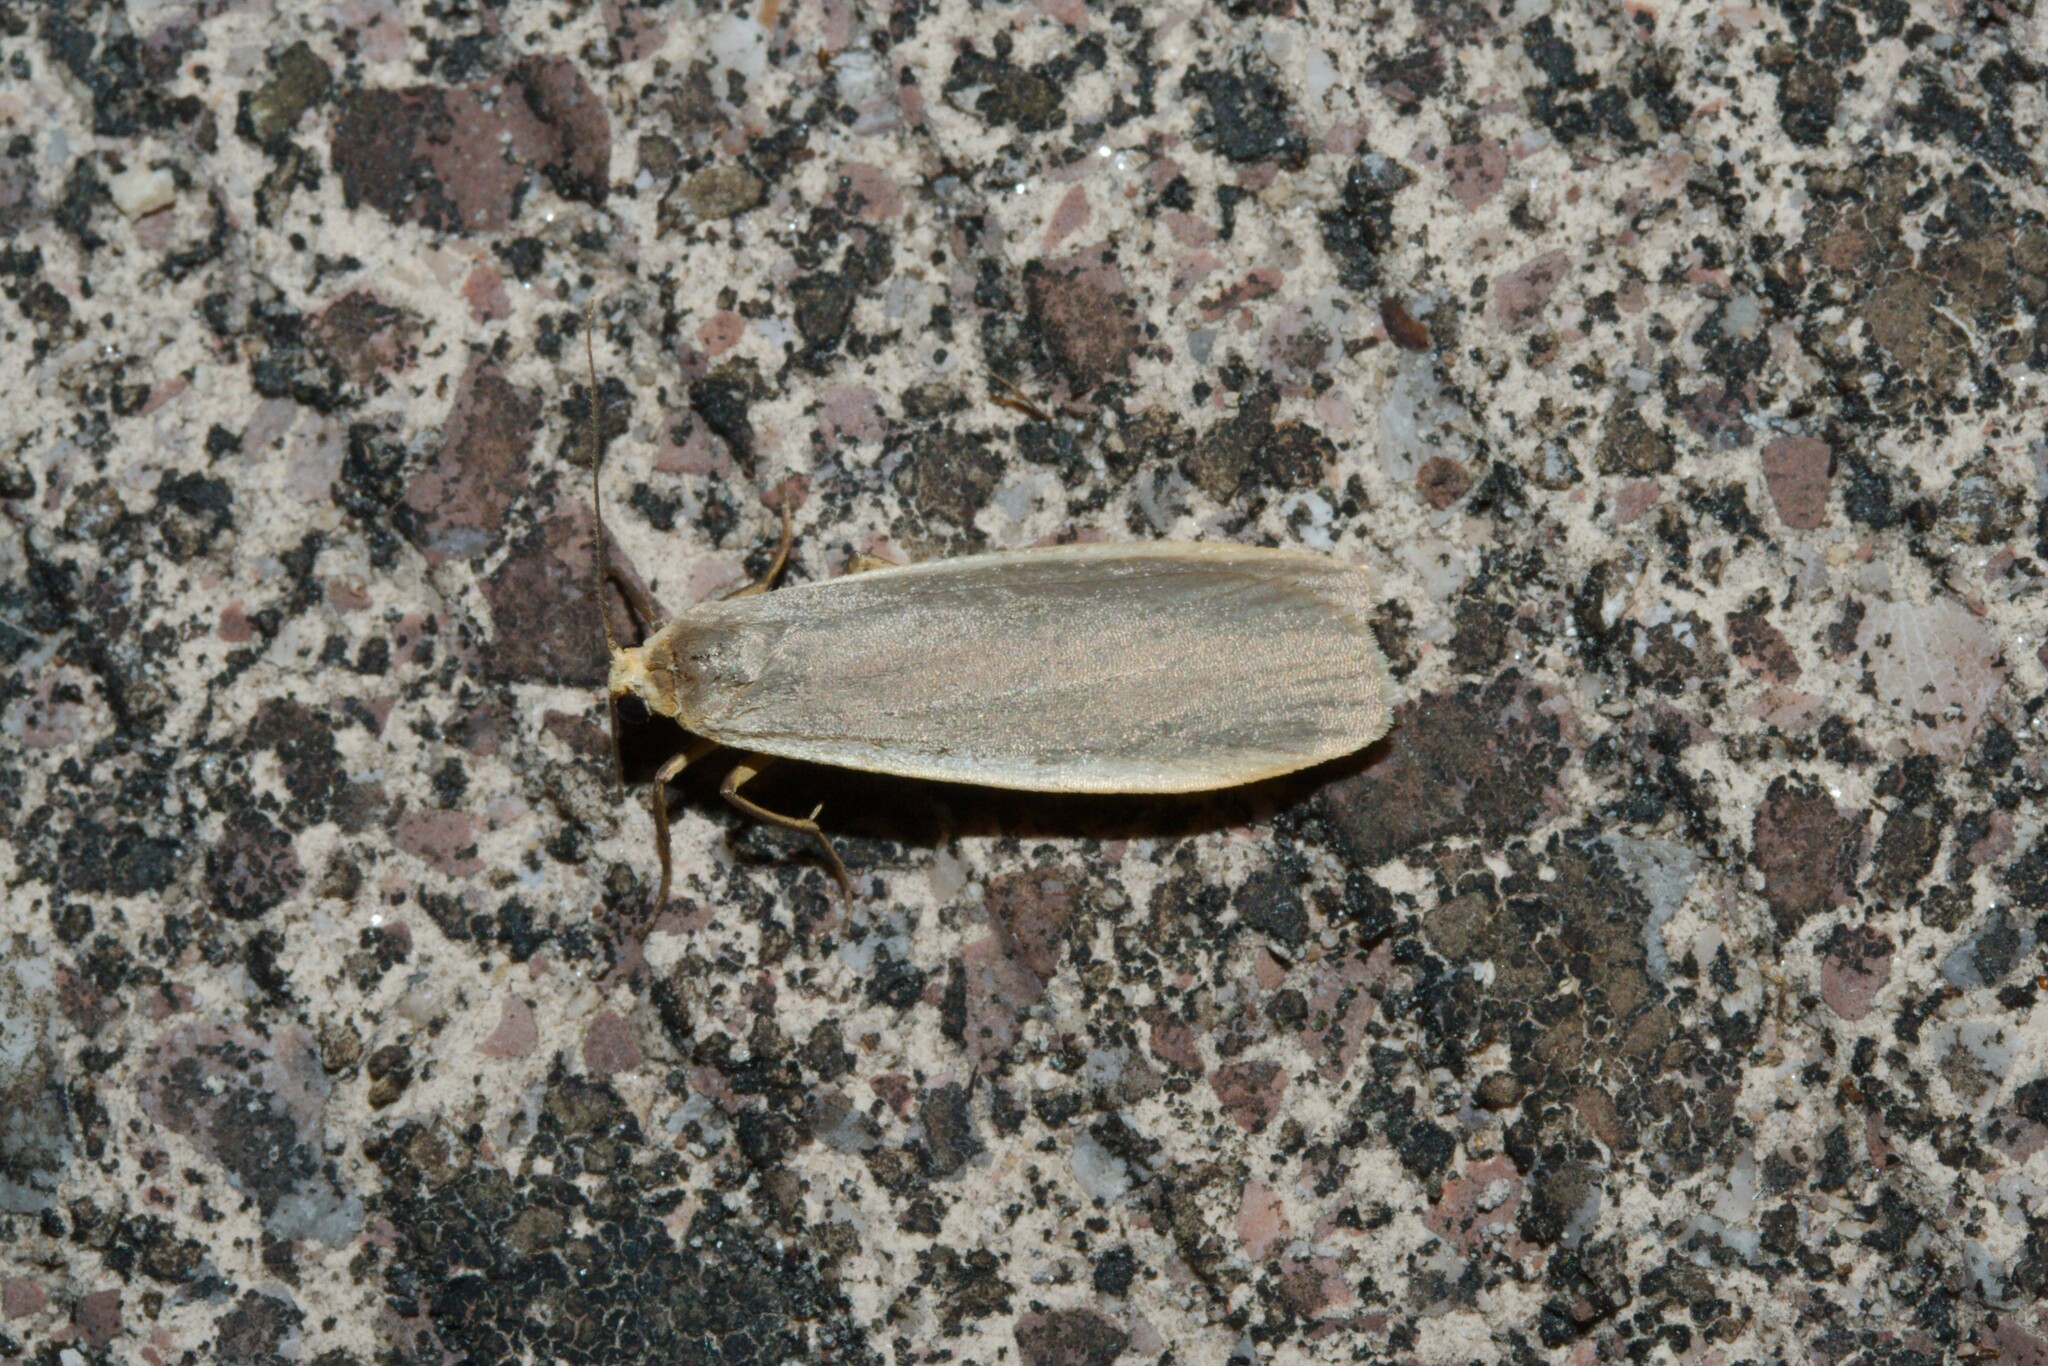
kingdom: Animalia
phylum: Arthropoda
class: Insecta
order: Lepidoptera
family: Erebidae
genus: Nyea
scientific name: Nyea lurideola
